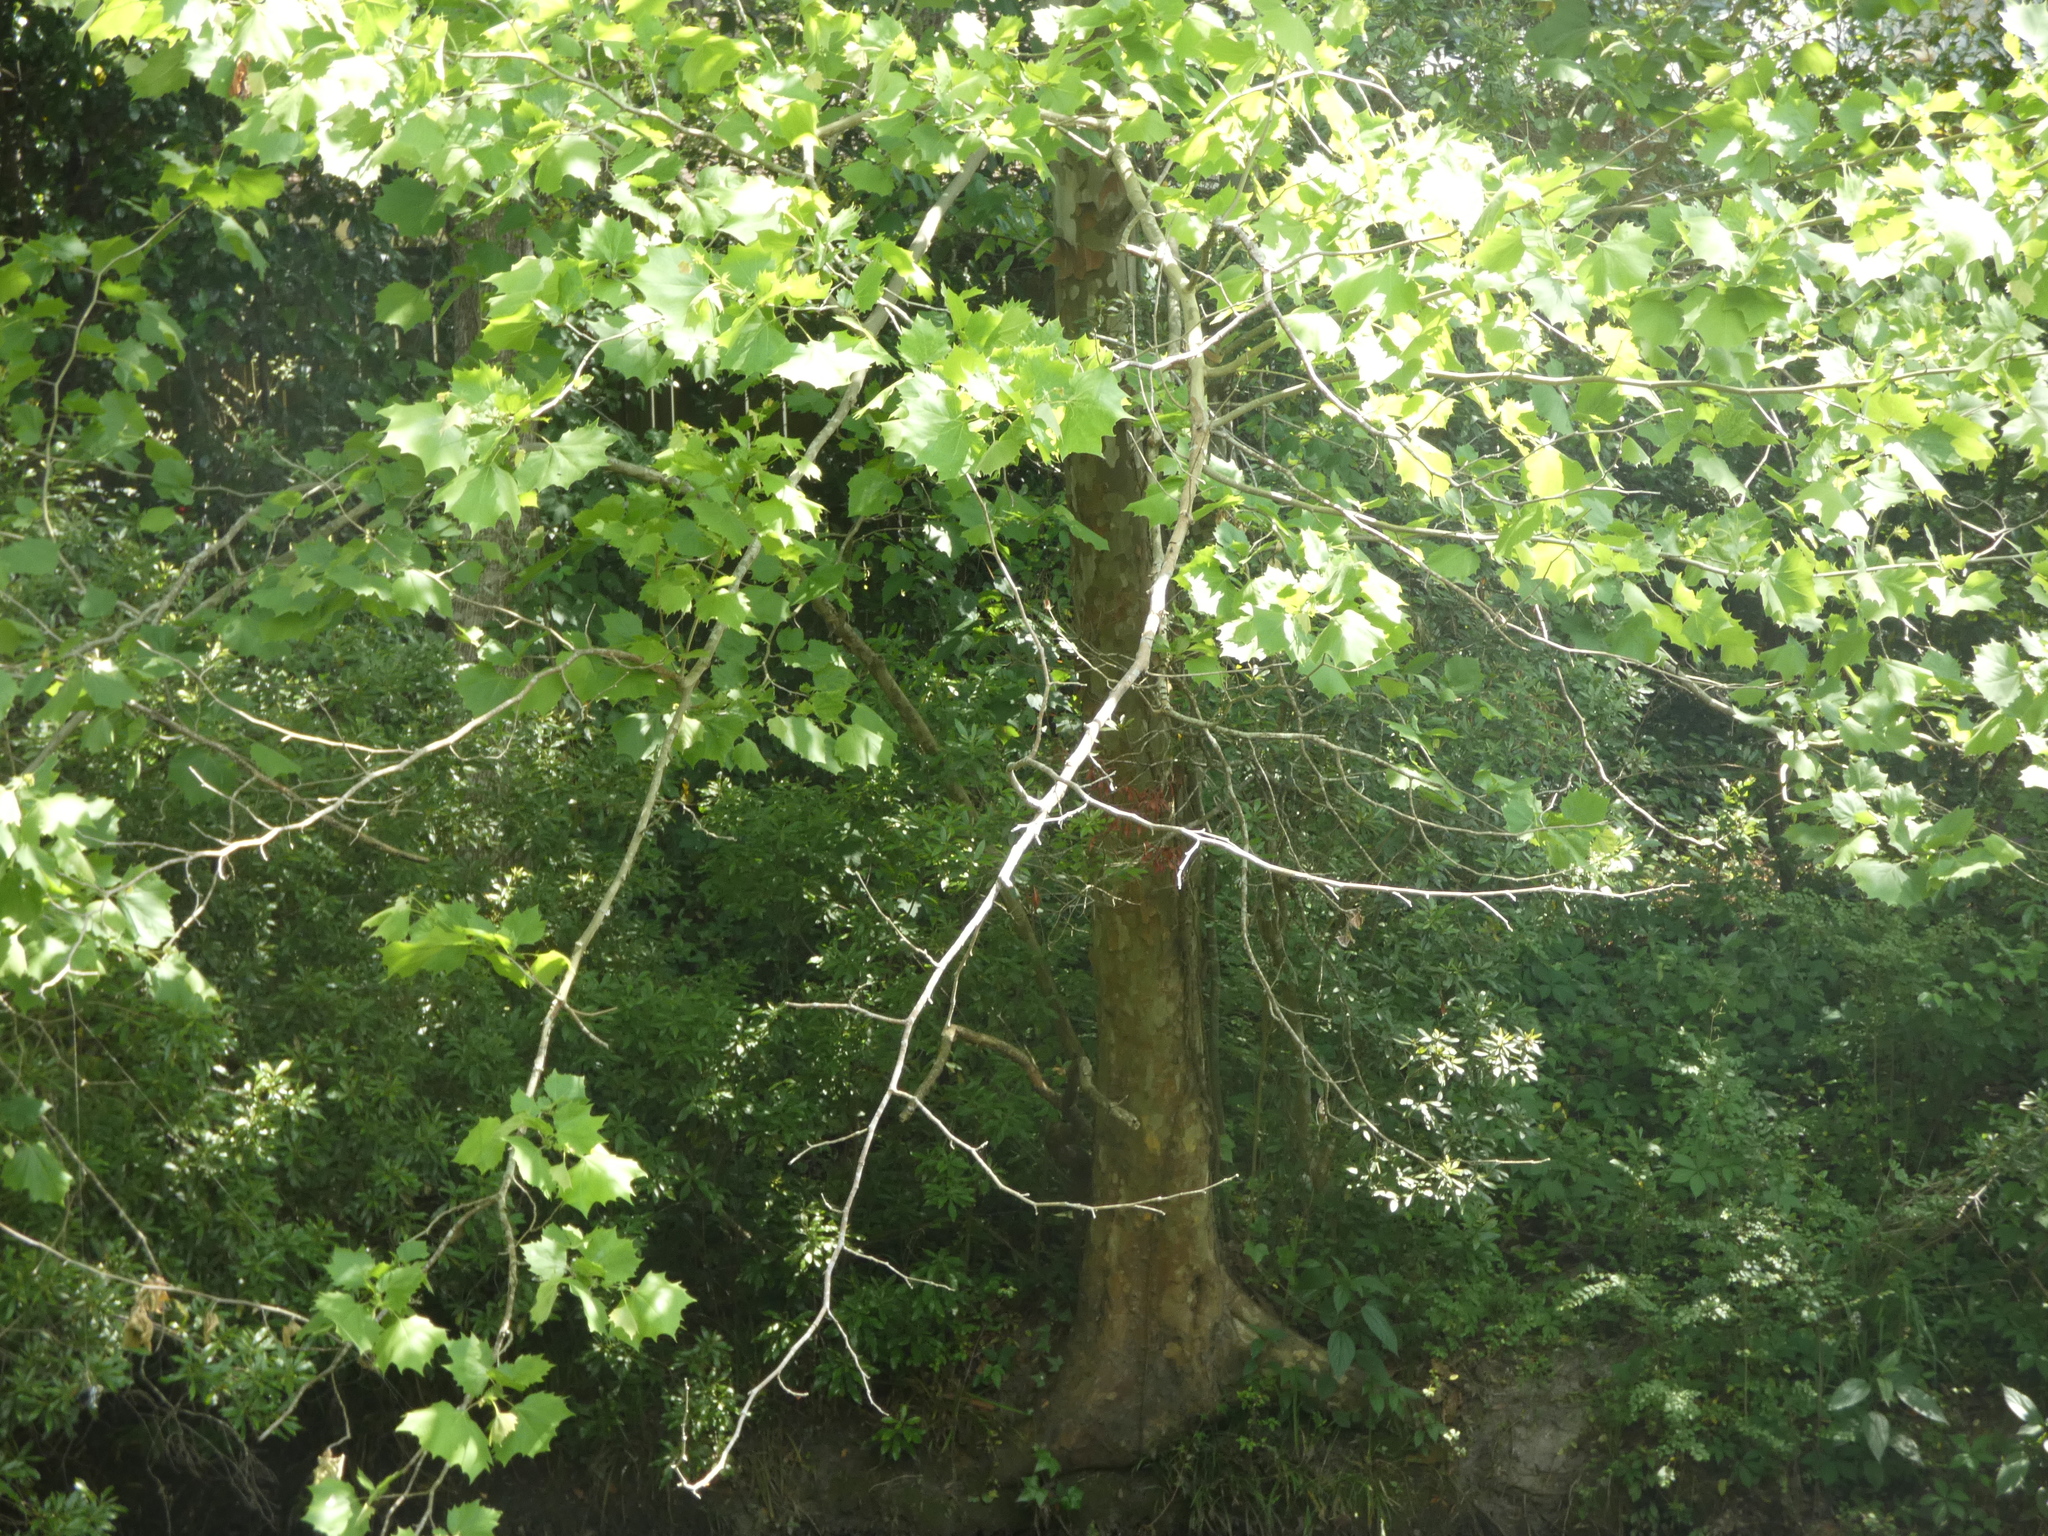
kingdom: Plantae
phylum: Tracheophyta
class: Magnoliopsida
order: Proteales
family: Platanaceae
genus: Platanus
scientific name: Platanus occidentalis
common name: American sycamore
